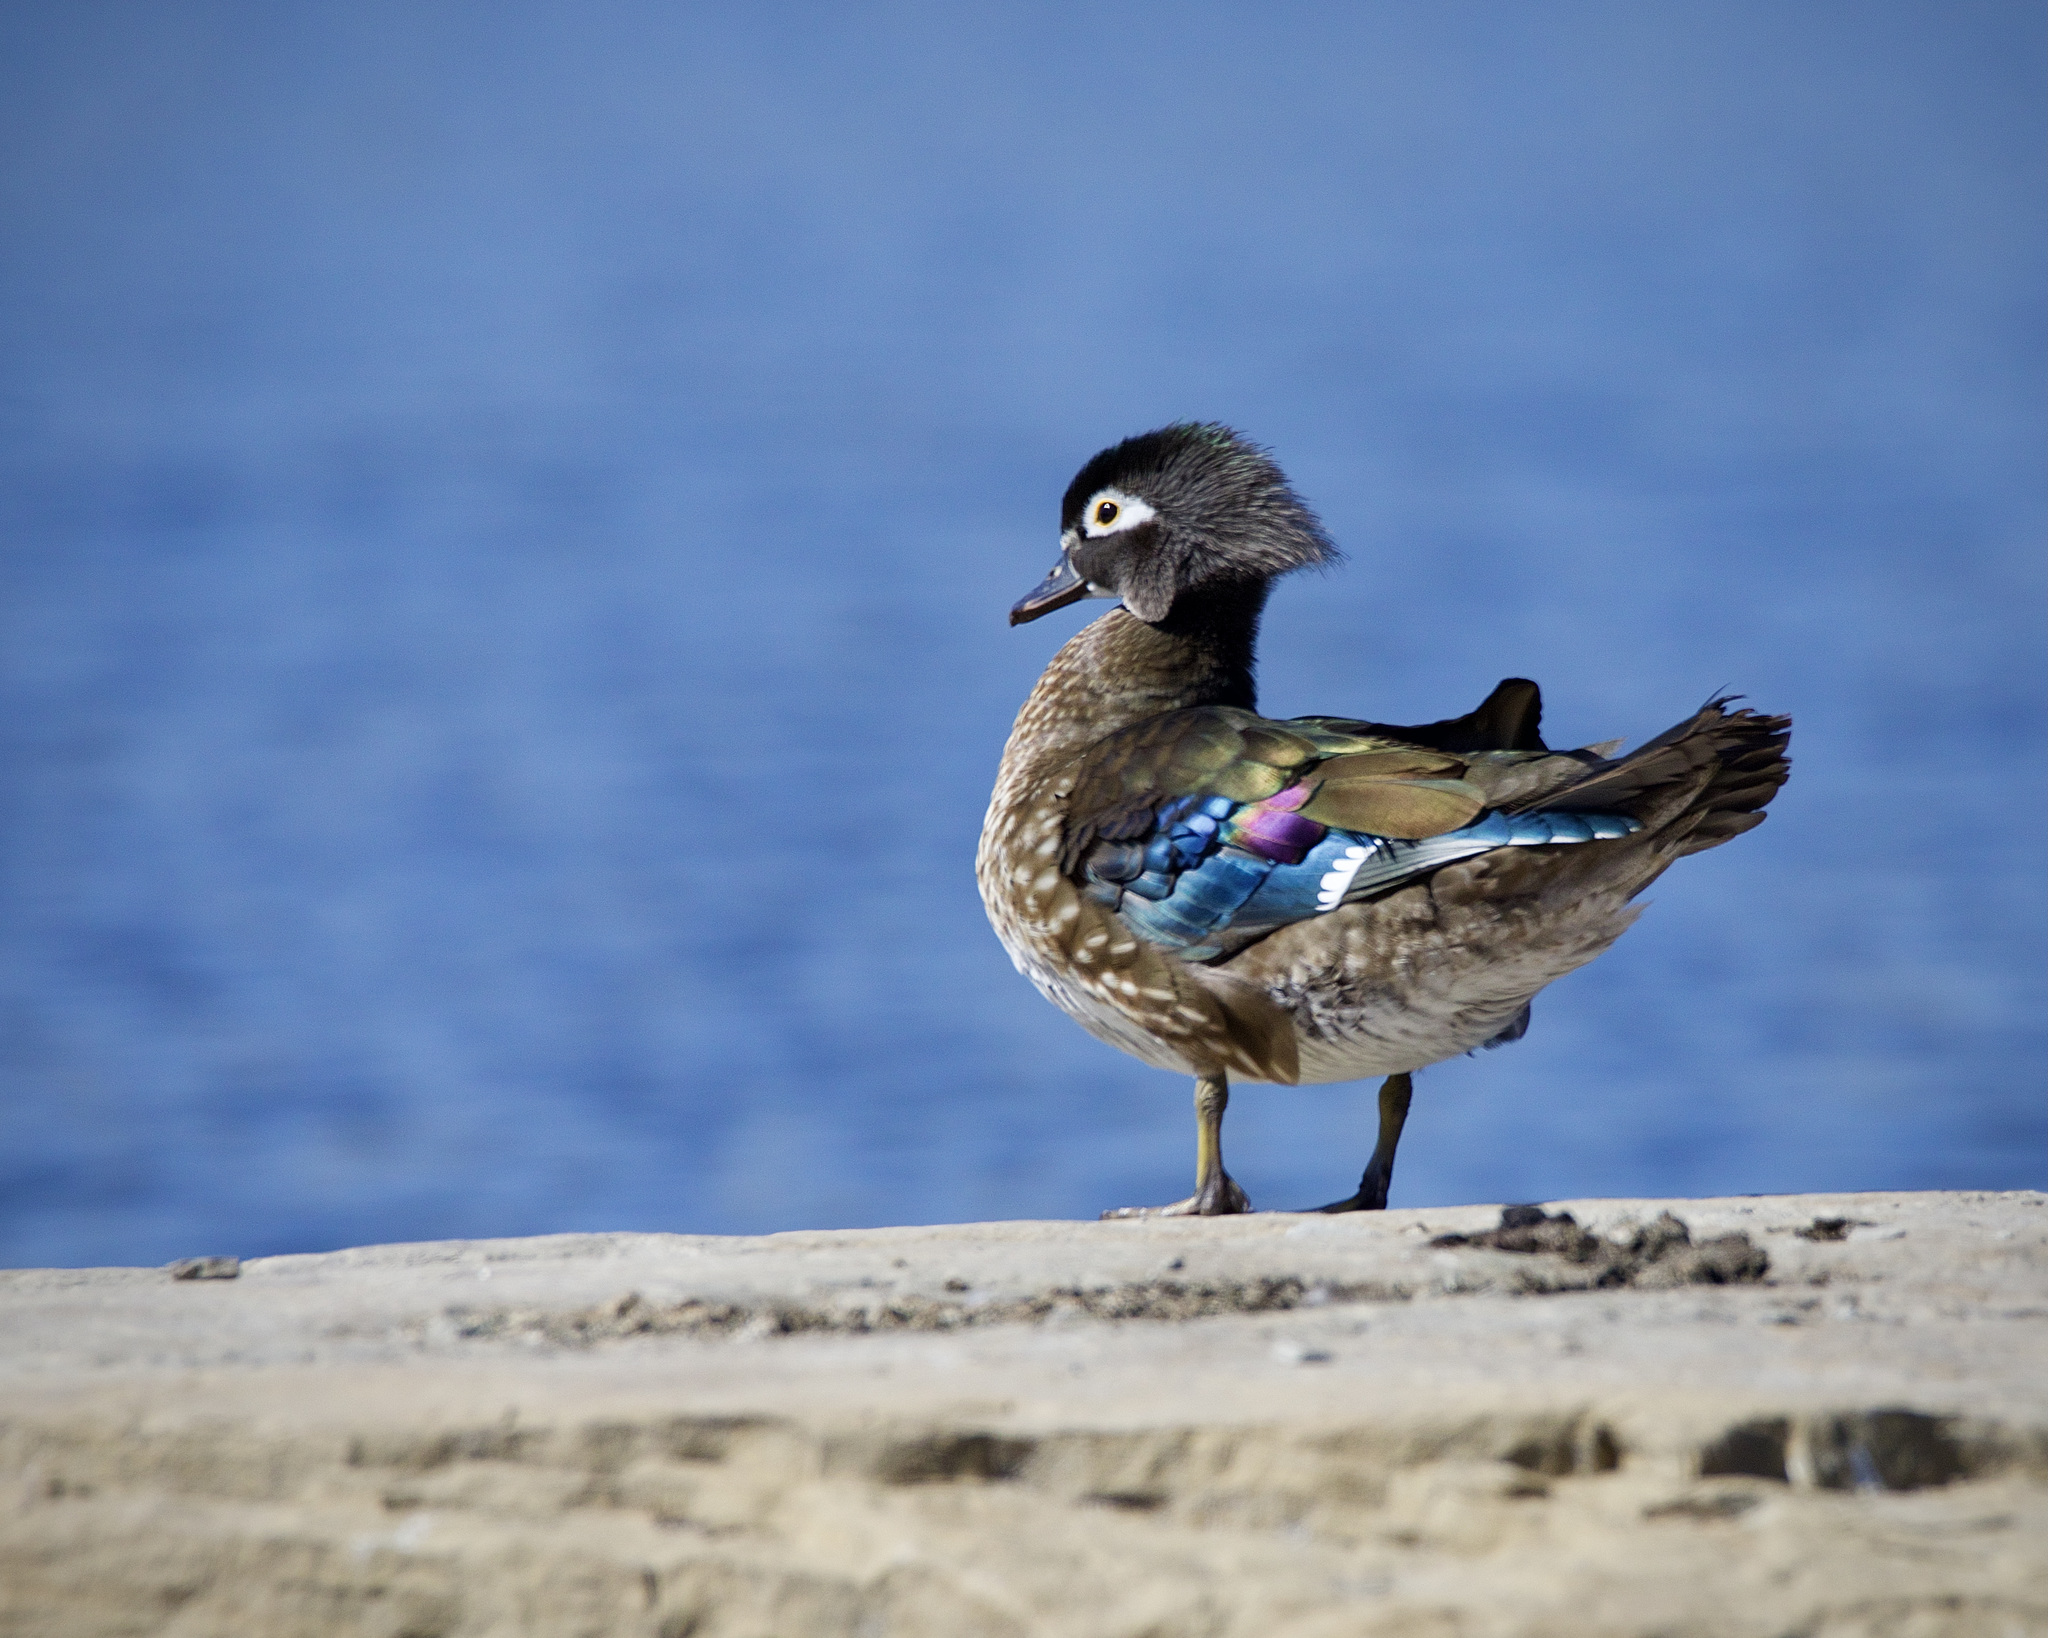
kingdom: Animalia
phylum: Chordata
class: Aves
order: Anseriformes
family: Anatidae
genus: Aix
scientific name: Aix sponsa
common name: Wood duck
